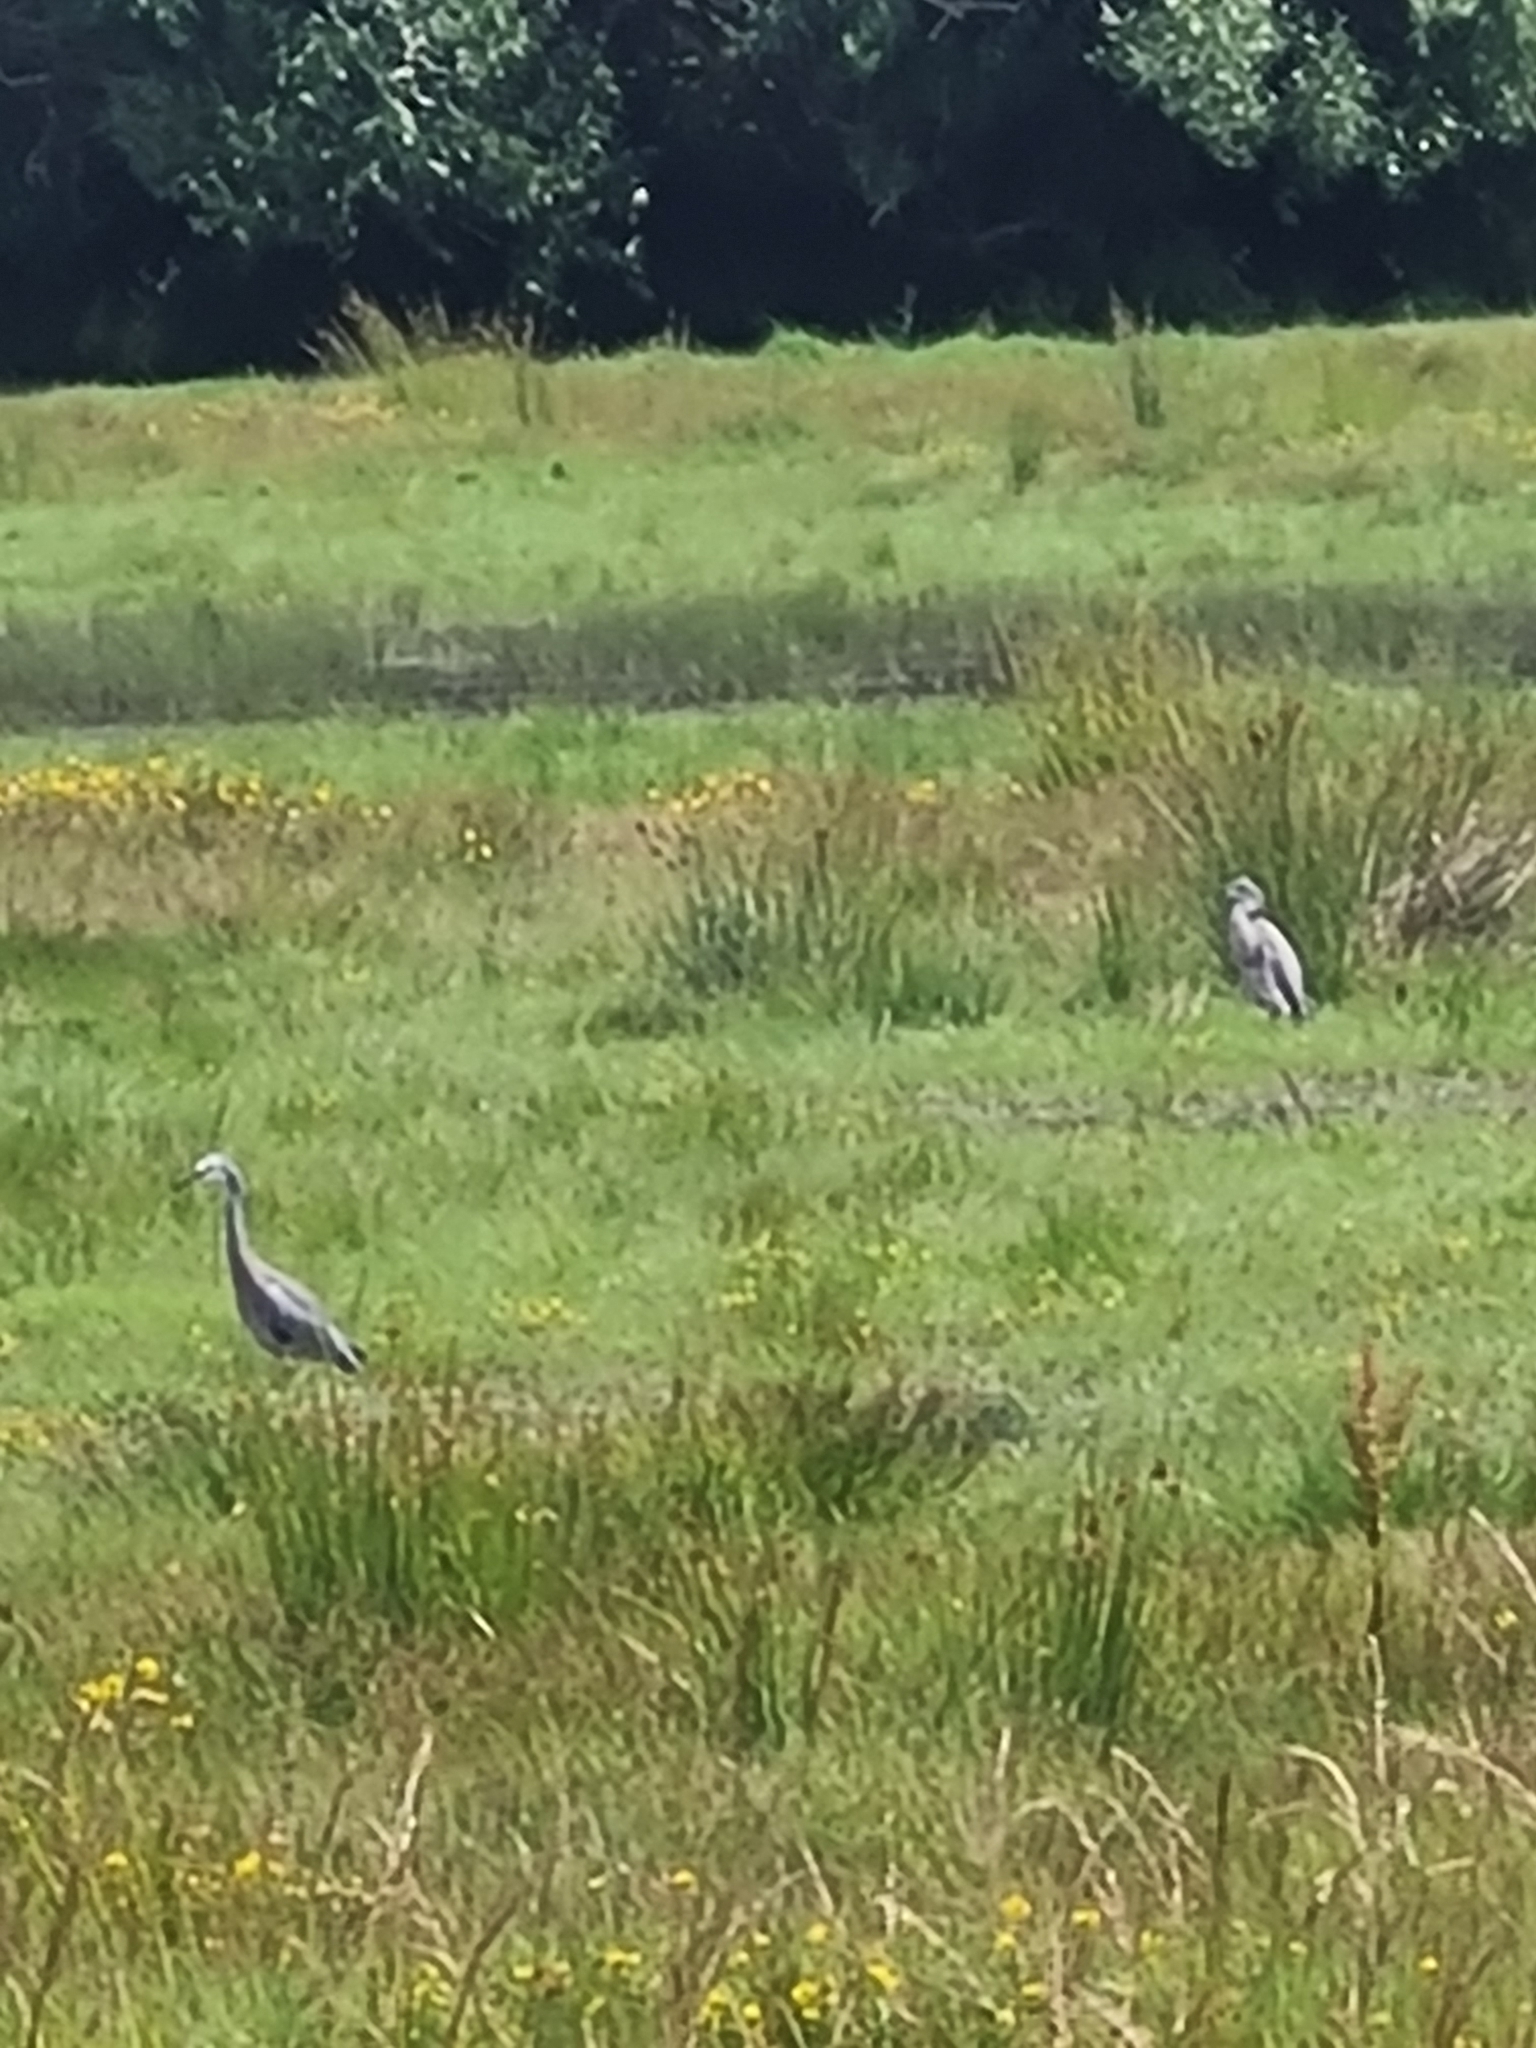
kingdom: Animalia
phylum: Chordata
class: Aves
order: Pelecaniformes
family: Ardeidae
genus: Egretta
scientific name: Egretta novaehollandiae
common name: White-faced heron
